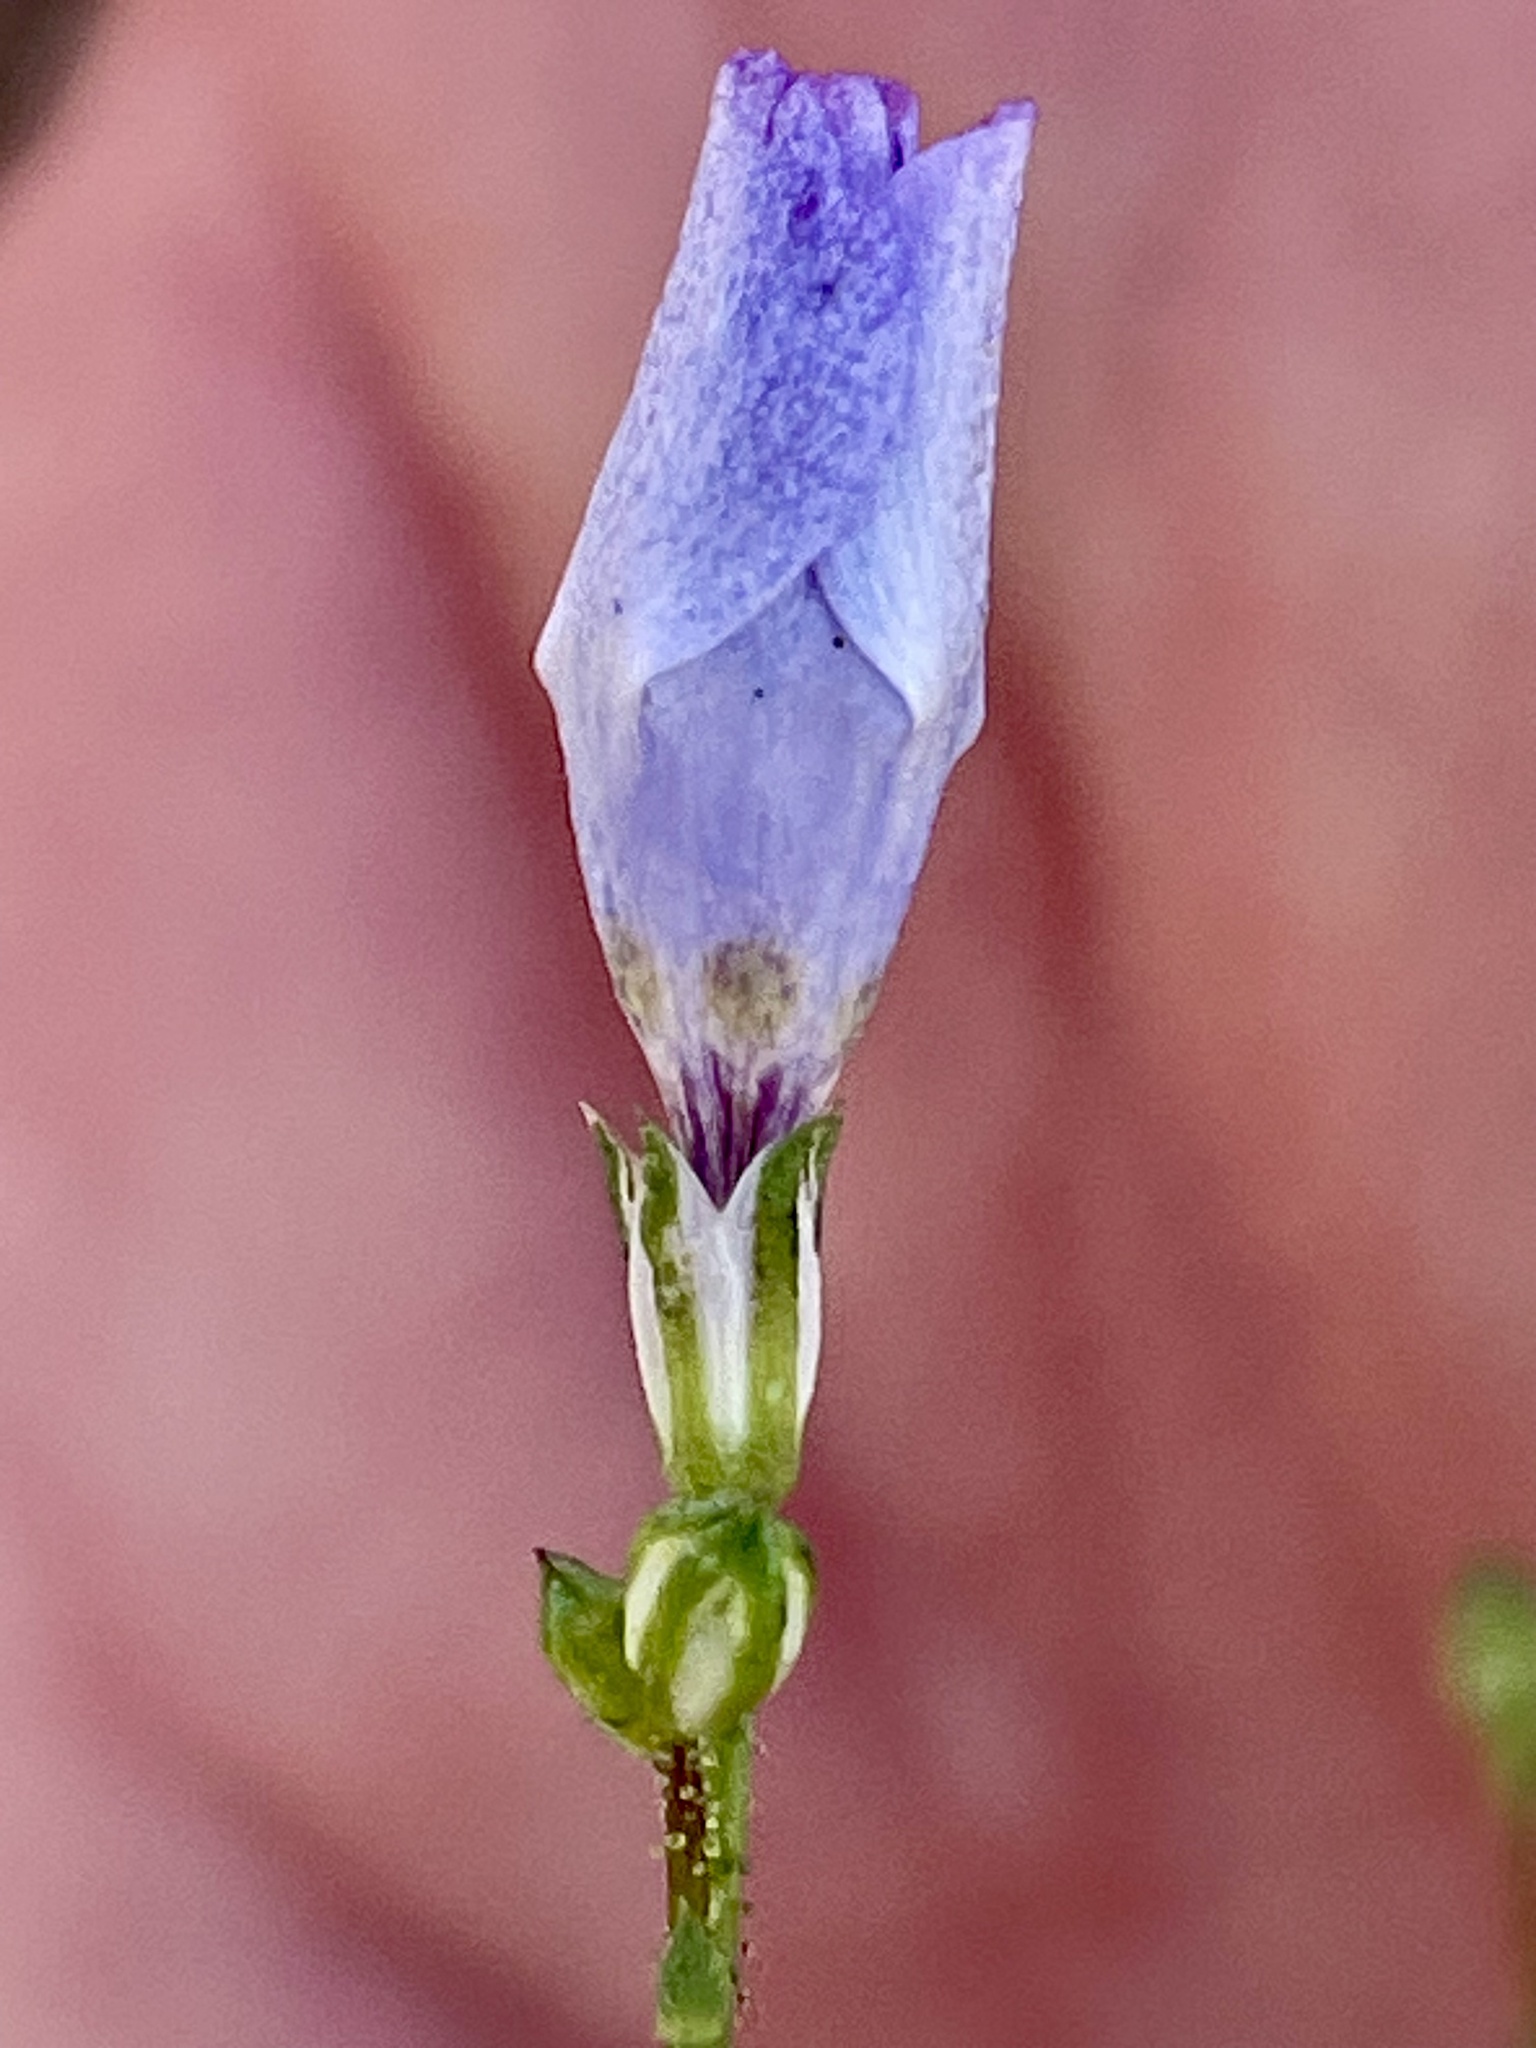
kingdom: Plantae
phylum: Tracheophyta
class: Magnoliopsida
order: Ericales
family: Polemoniaceae
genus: Saltugilia
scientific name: Saltugilia splendens
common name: Grinnell's gilia
